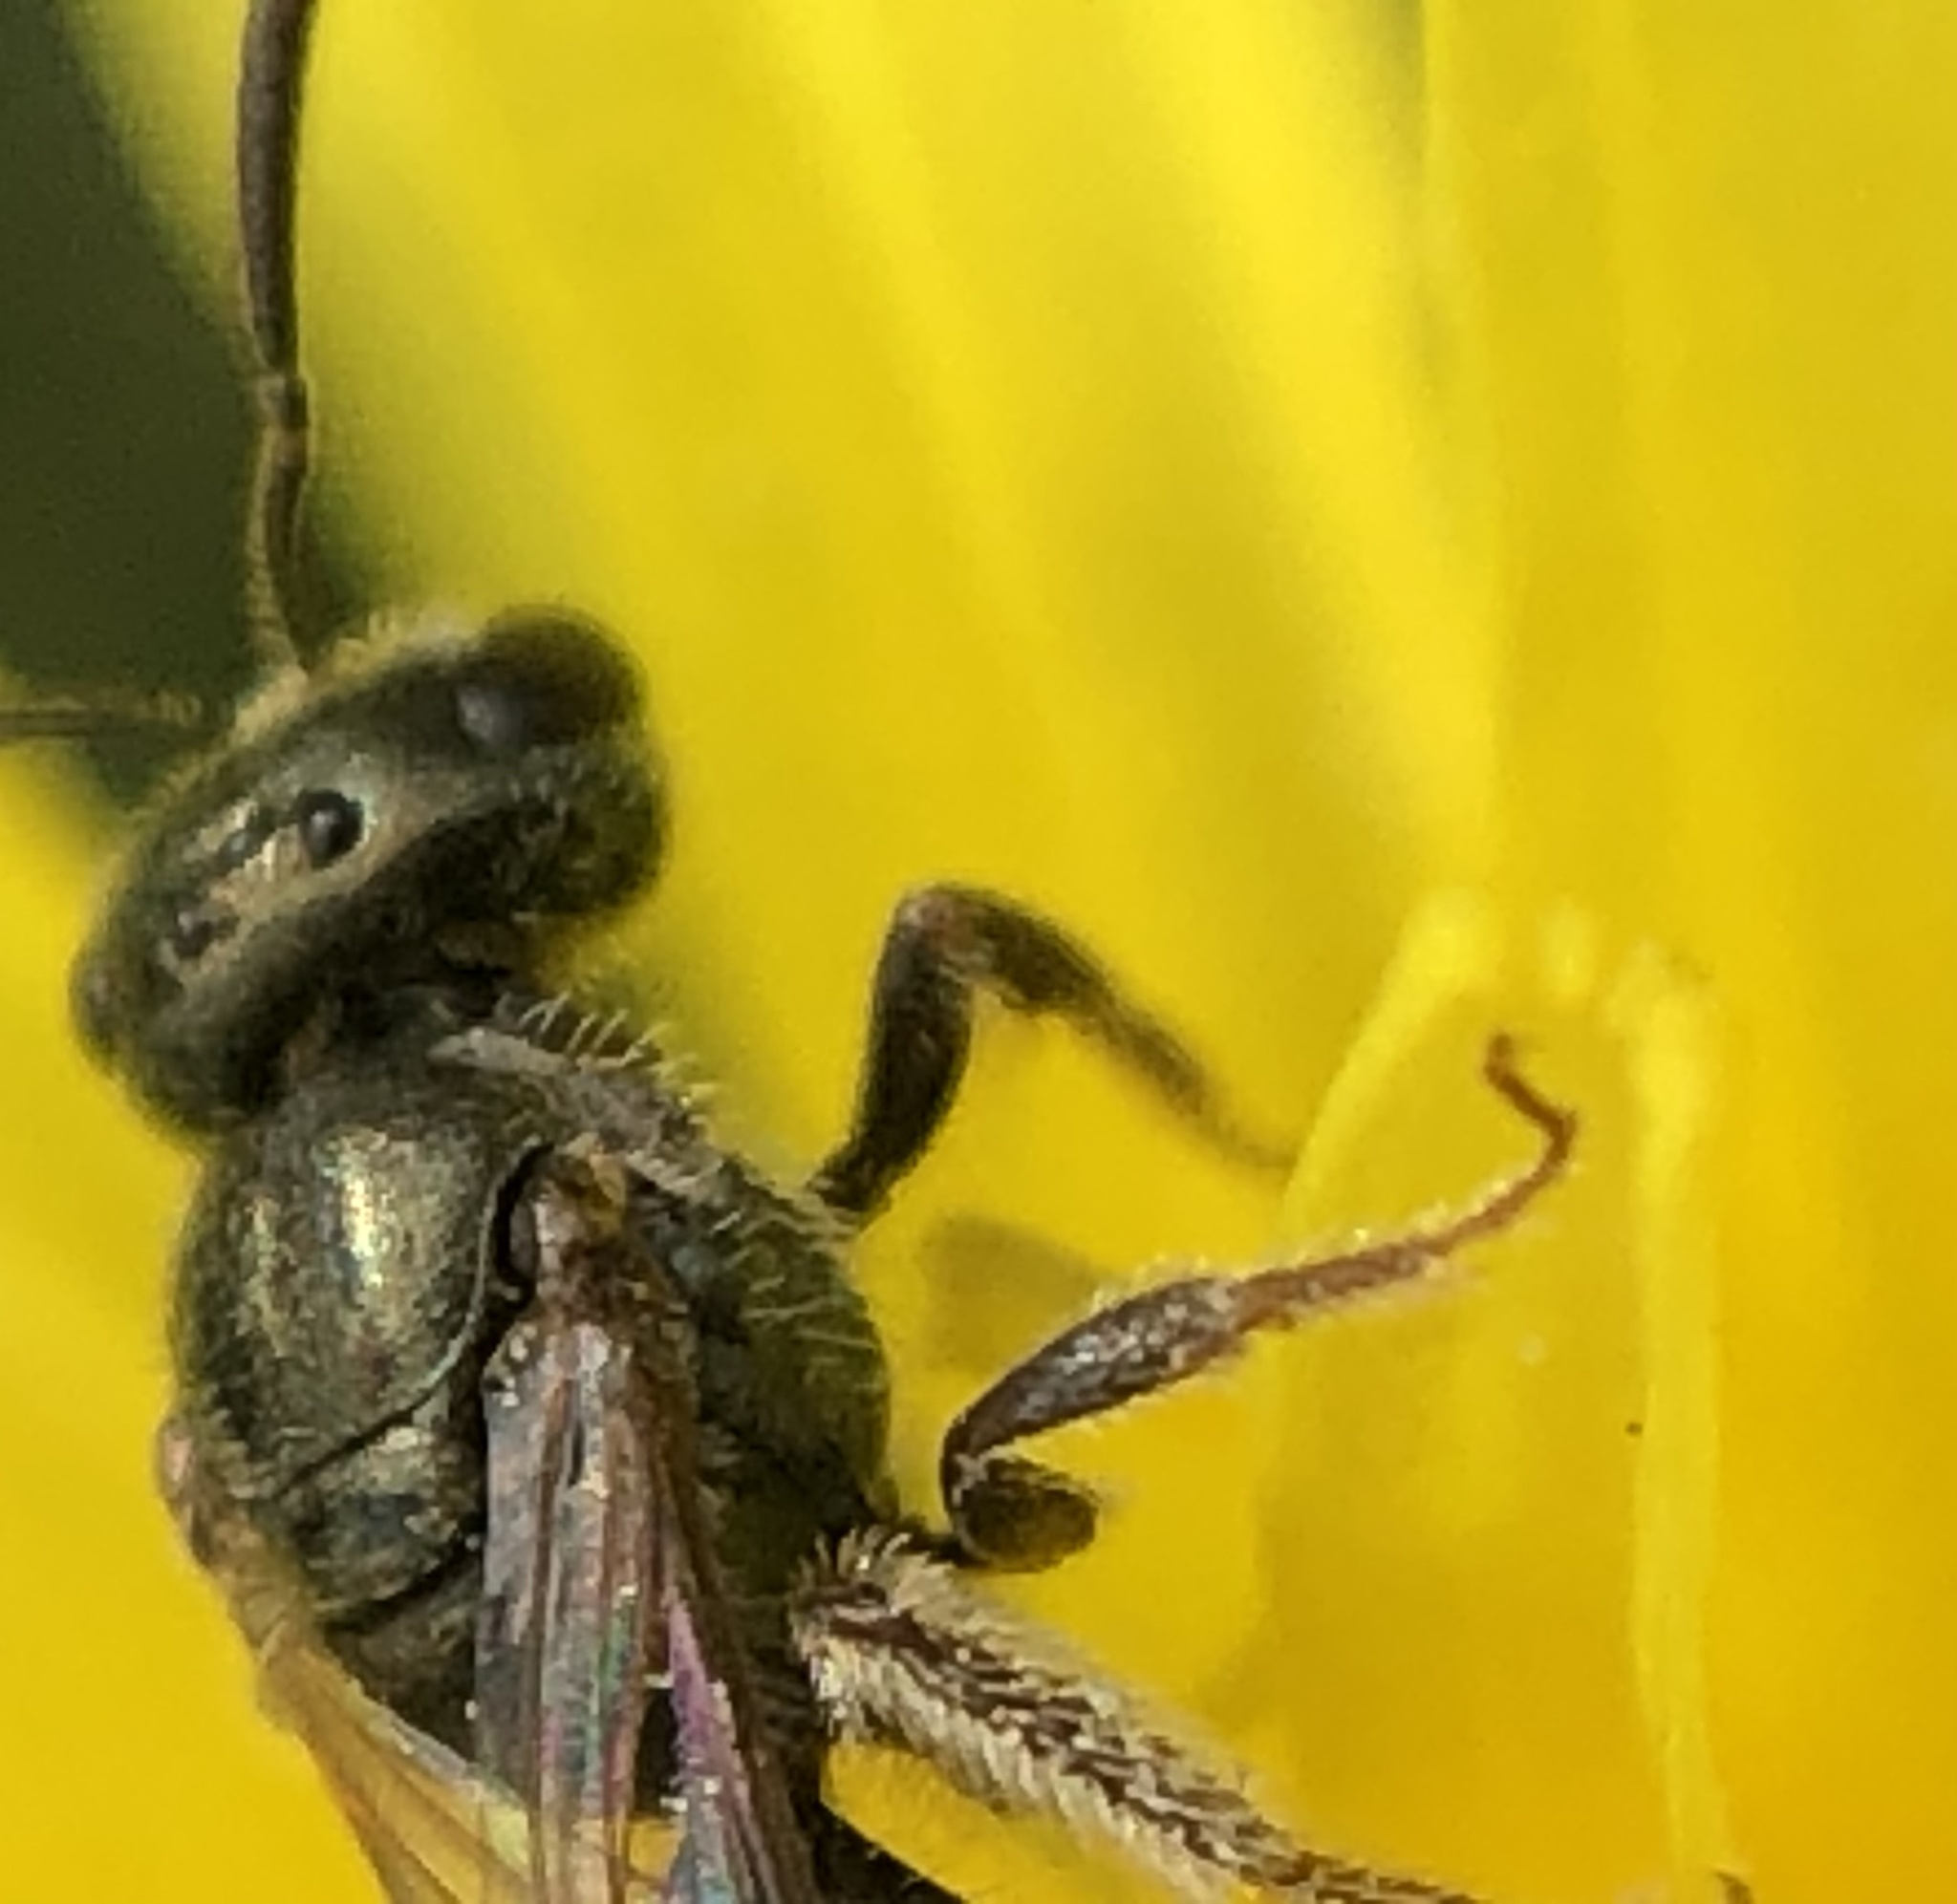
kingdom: Animalia
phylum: Arthropoda
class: Insecta
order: Hymenoptera
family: Halictidae
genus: Lasioglossum
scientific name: Lasioglossum imitatum
